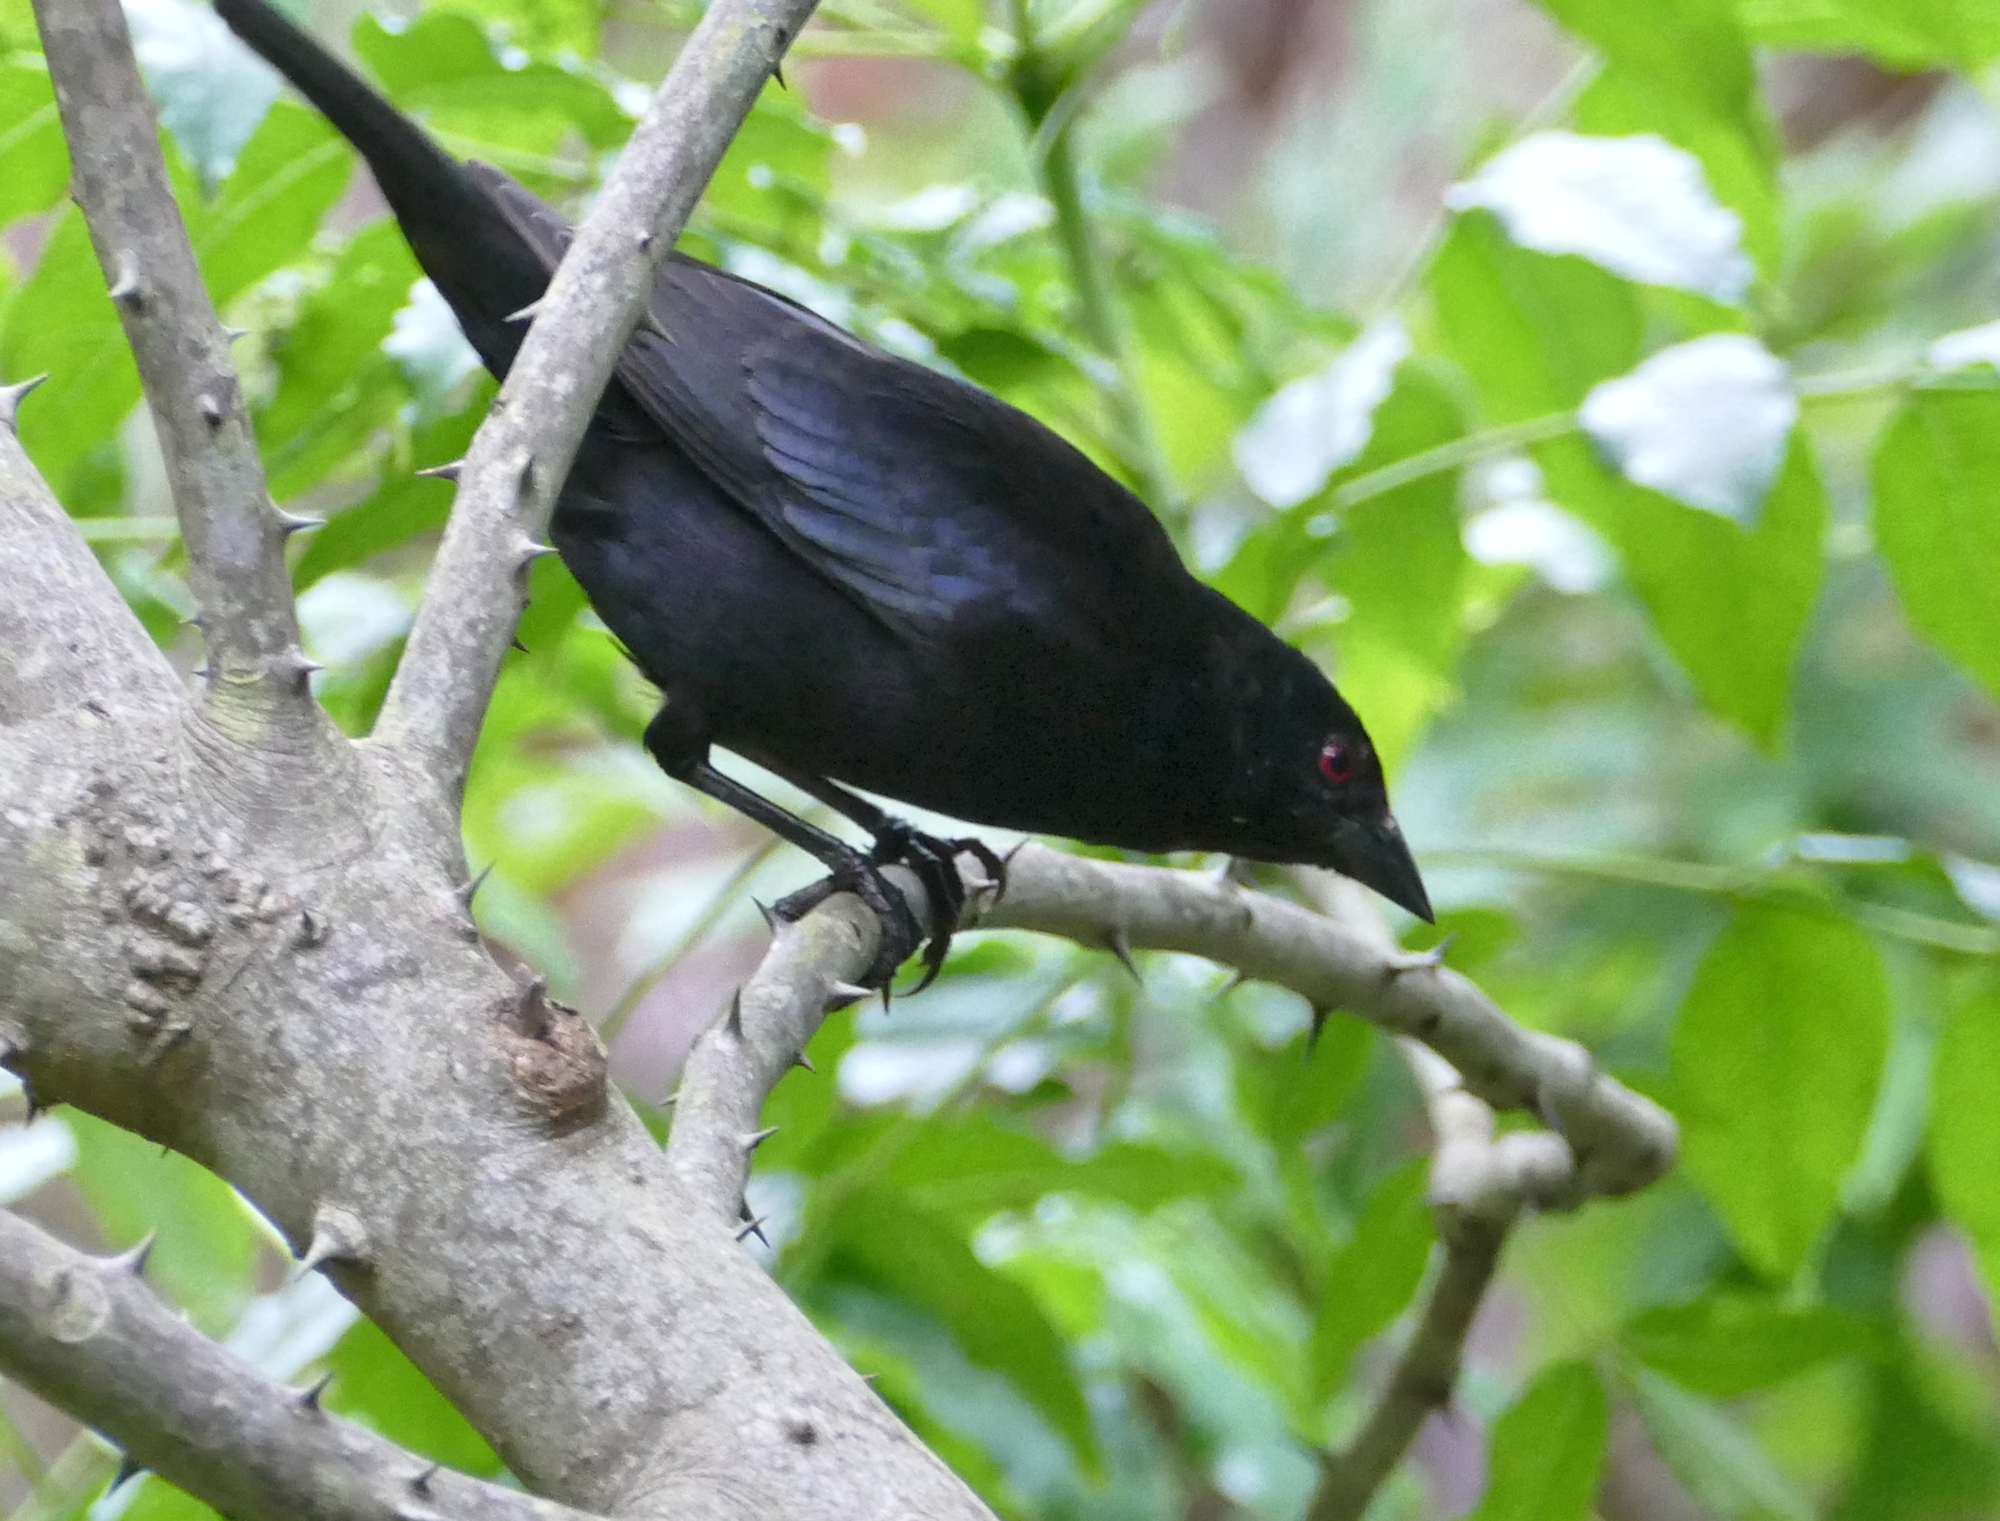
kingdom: Animalia
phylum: Chordata
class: Aves
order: Passeriformes
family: Icteridae
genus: Molothrus
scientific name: Molothrus aeneus
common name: Bronzed cowbird
